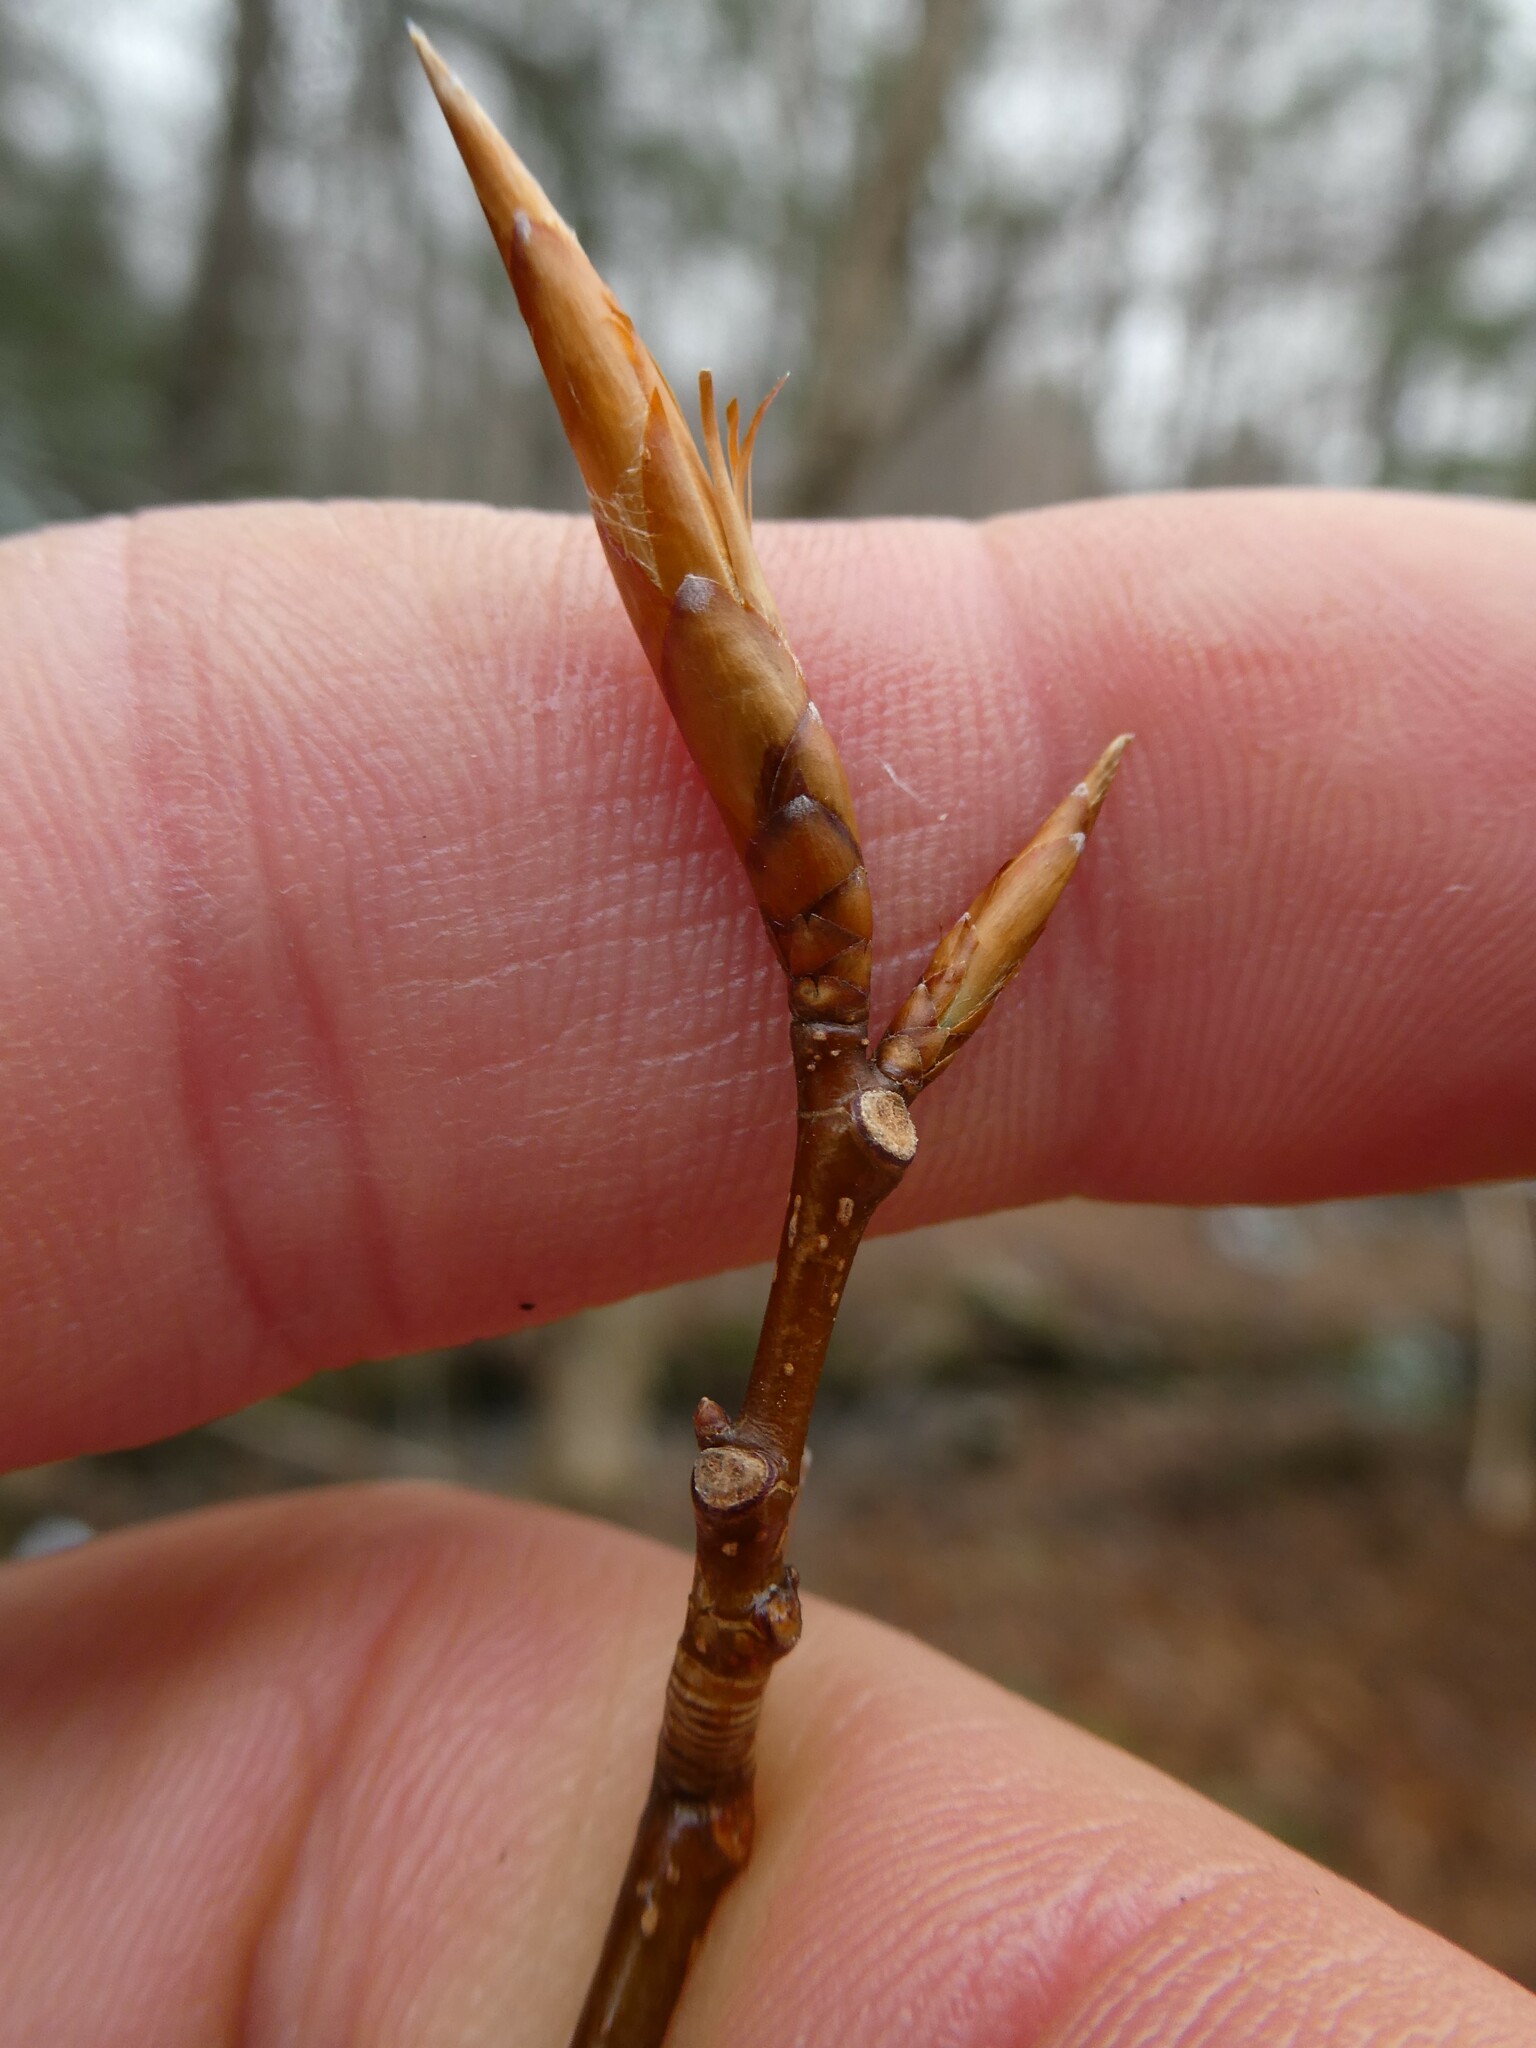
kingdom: Plantae
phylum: Tracheophyta
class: Magnoliopsida
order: Fagales
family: Fagaceae
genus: Fagus
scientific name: Fagus grandifolia
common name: American beech
